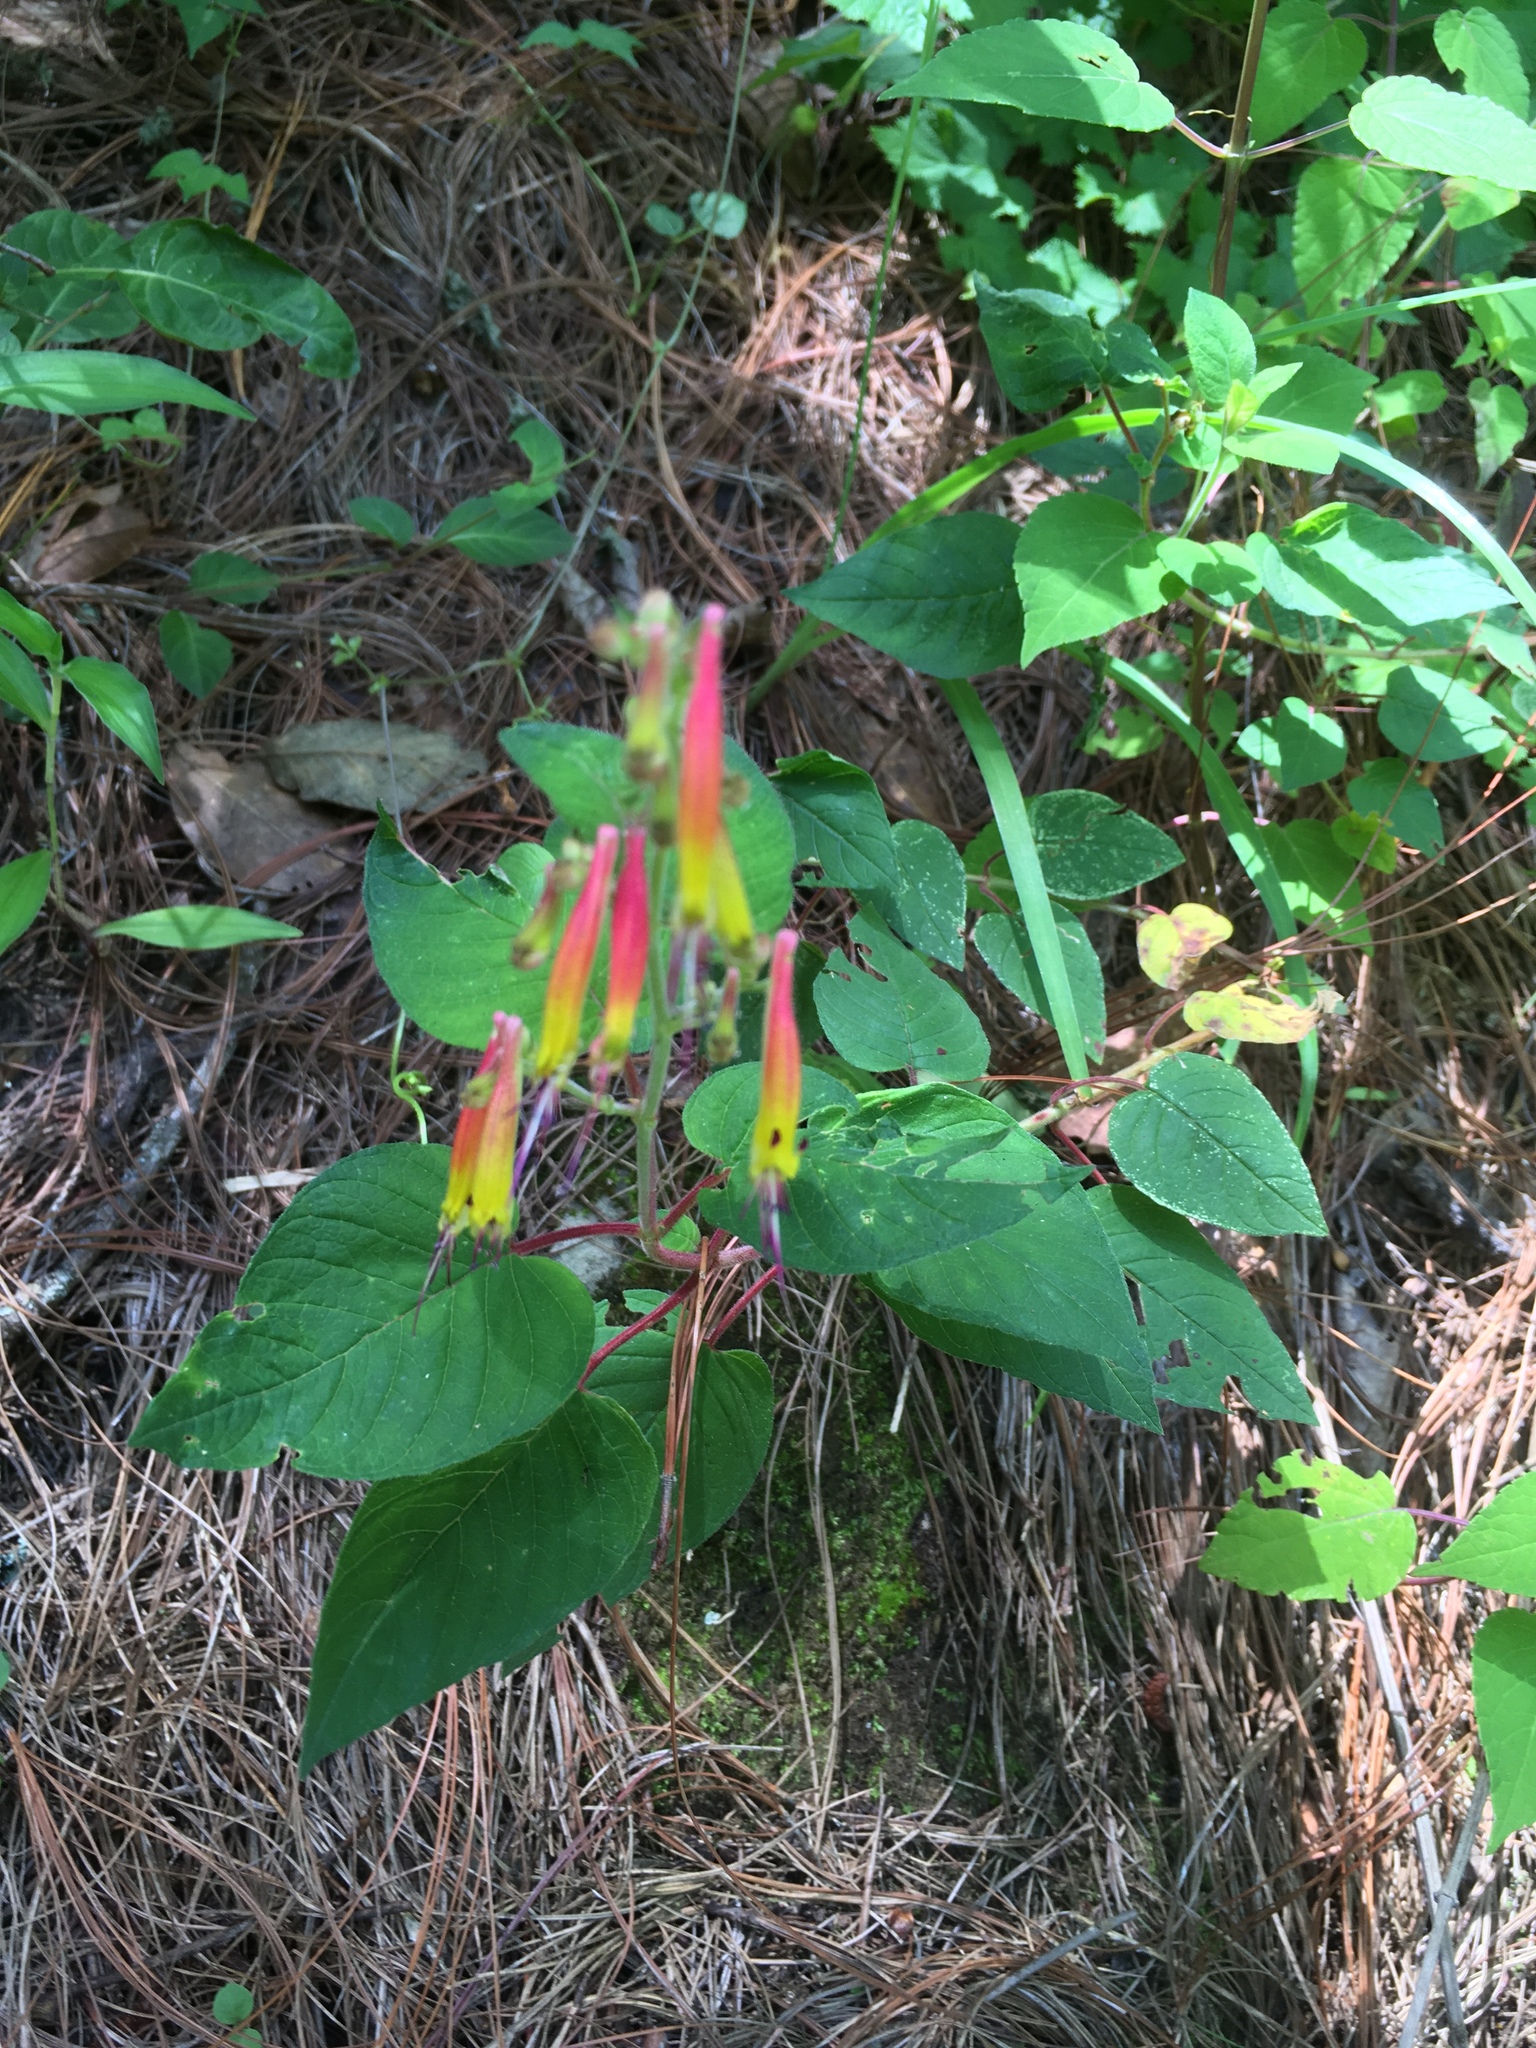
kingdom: Plantae
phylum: Tracheophyta
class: Magnoliopsida
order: Myrtales
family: Lythraceae
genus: Cuphea
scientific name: Cuphea cyanea
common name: Black-eyed cuphea
